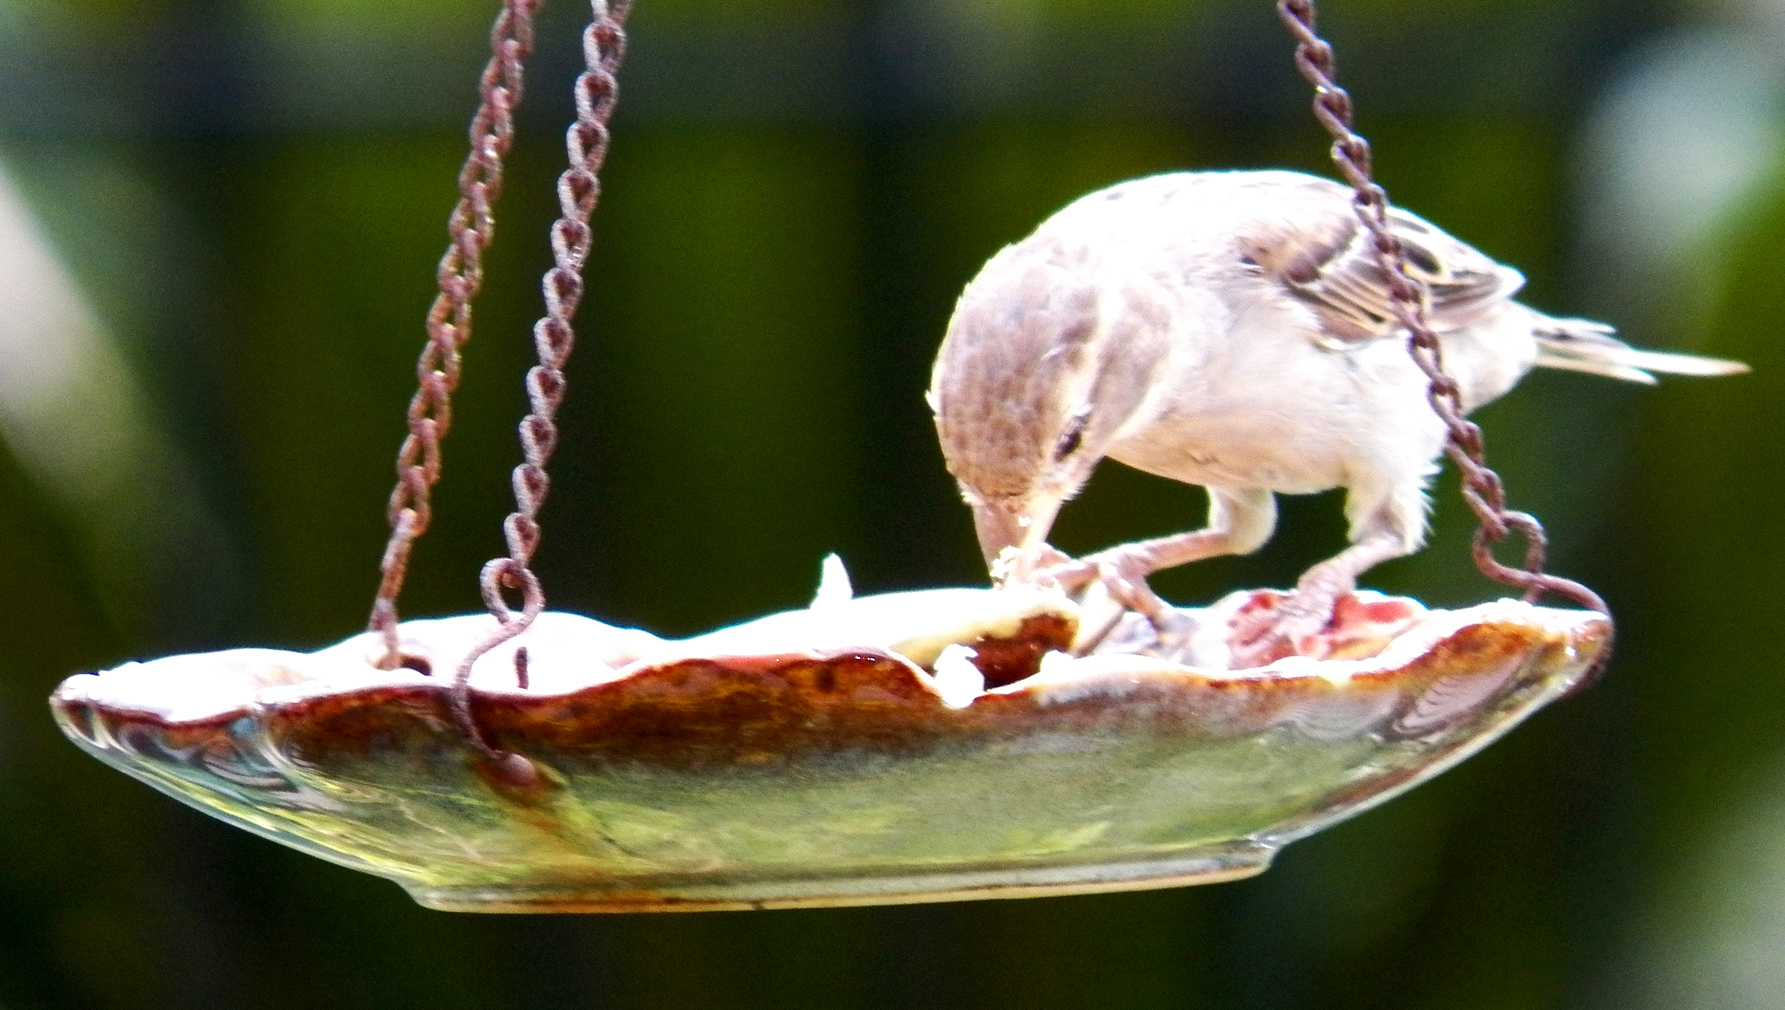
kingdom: Animalia
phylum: Chordata
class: Aves
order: Passeriformes
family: Passeridae
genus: Passer
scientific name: Passer domesticus
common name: House sparrow
